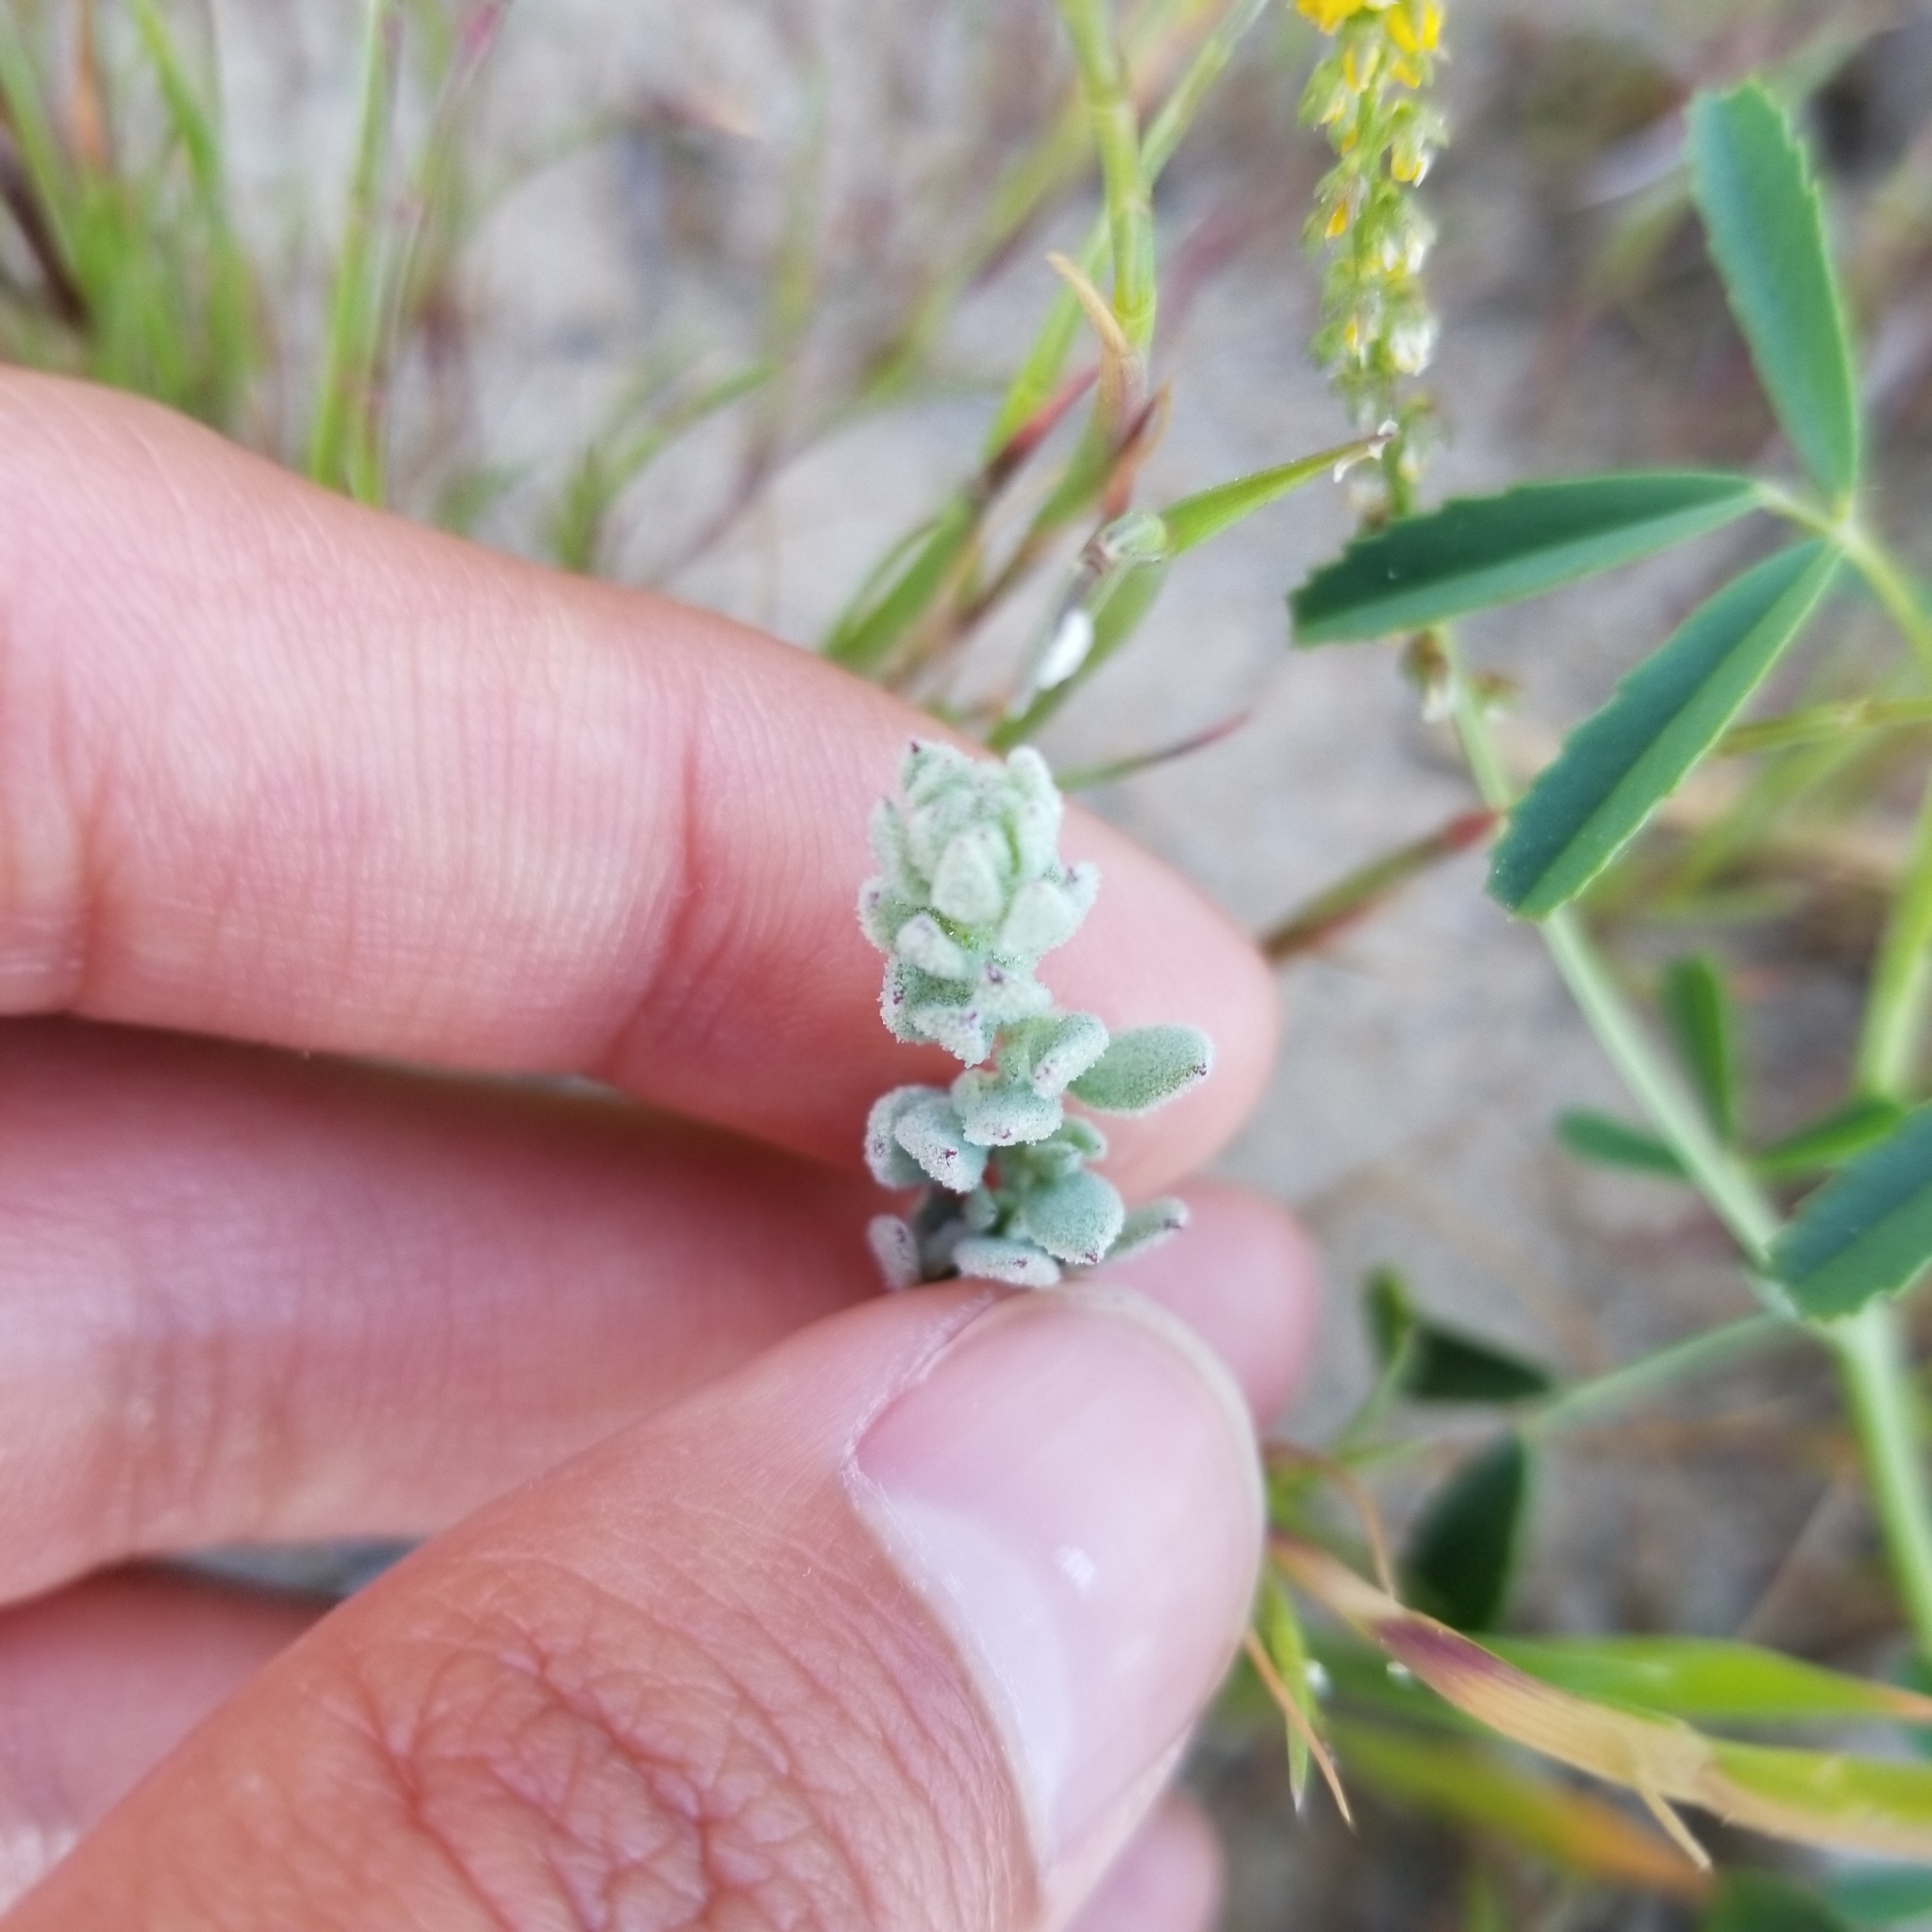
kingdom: Plantae
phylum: Tracheophyta
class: Magnoliopsida
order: Caryophyllales
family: Amaranthaceae
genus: Extriplex
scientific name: Extriplex californica
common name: California saltbush
